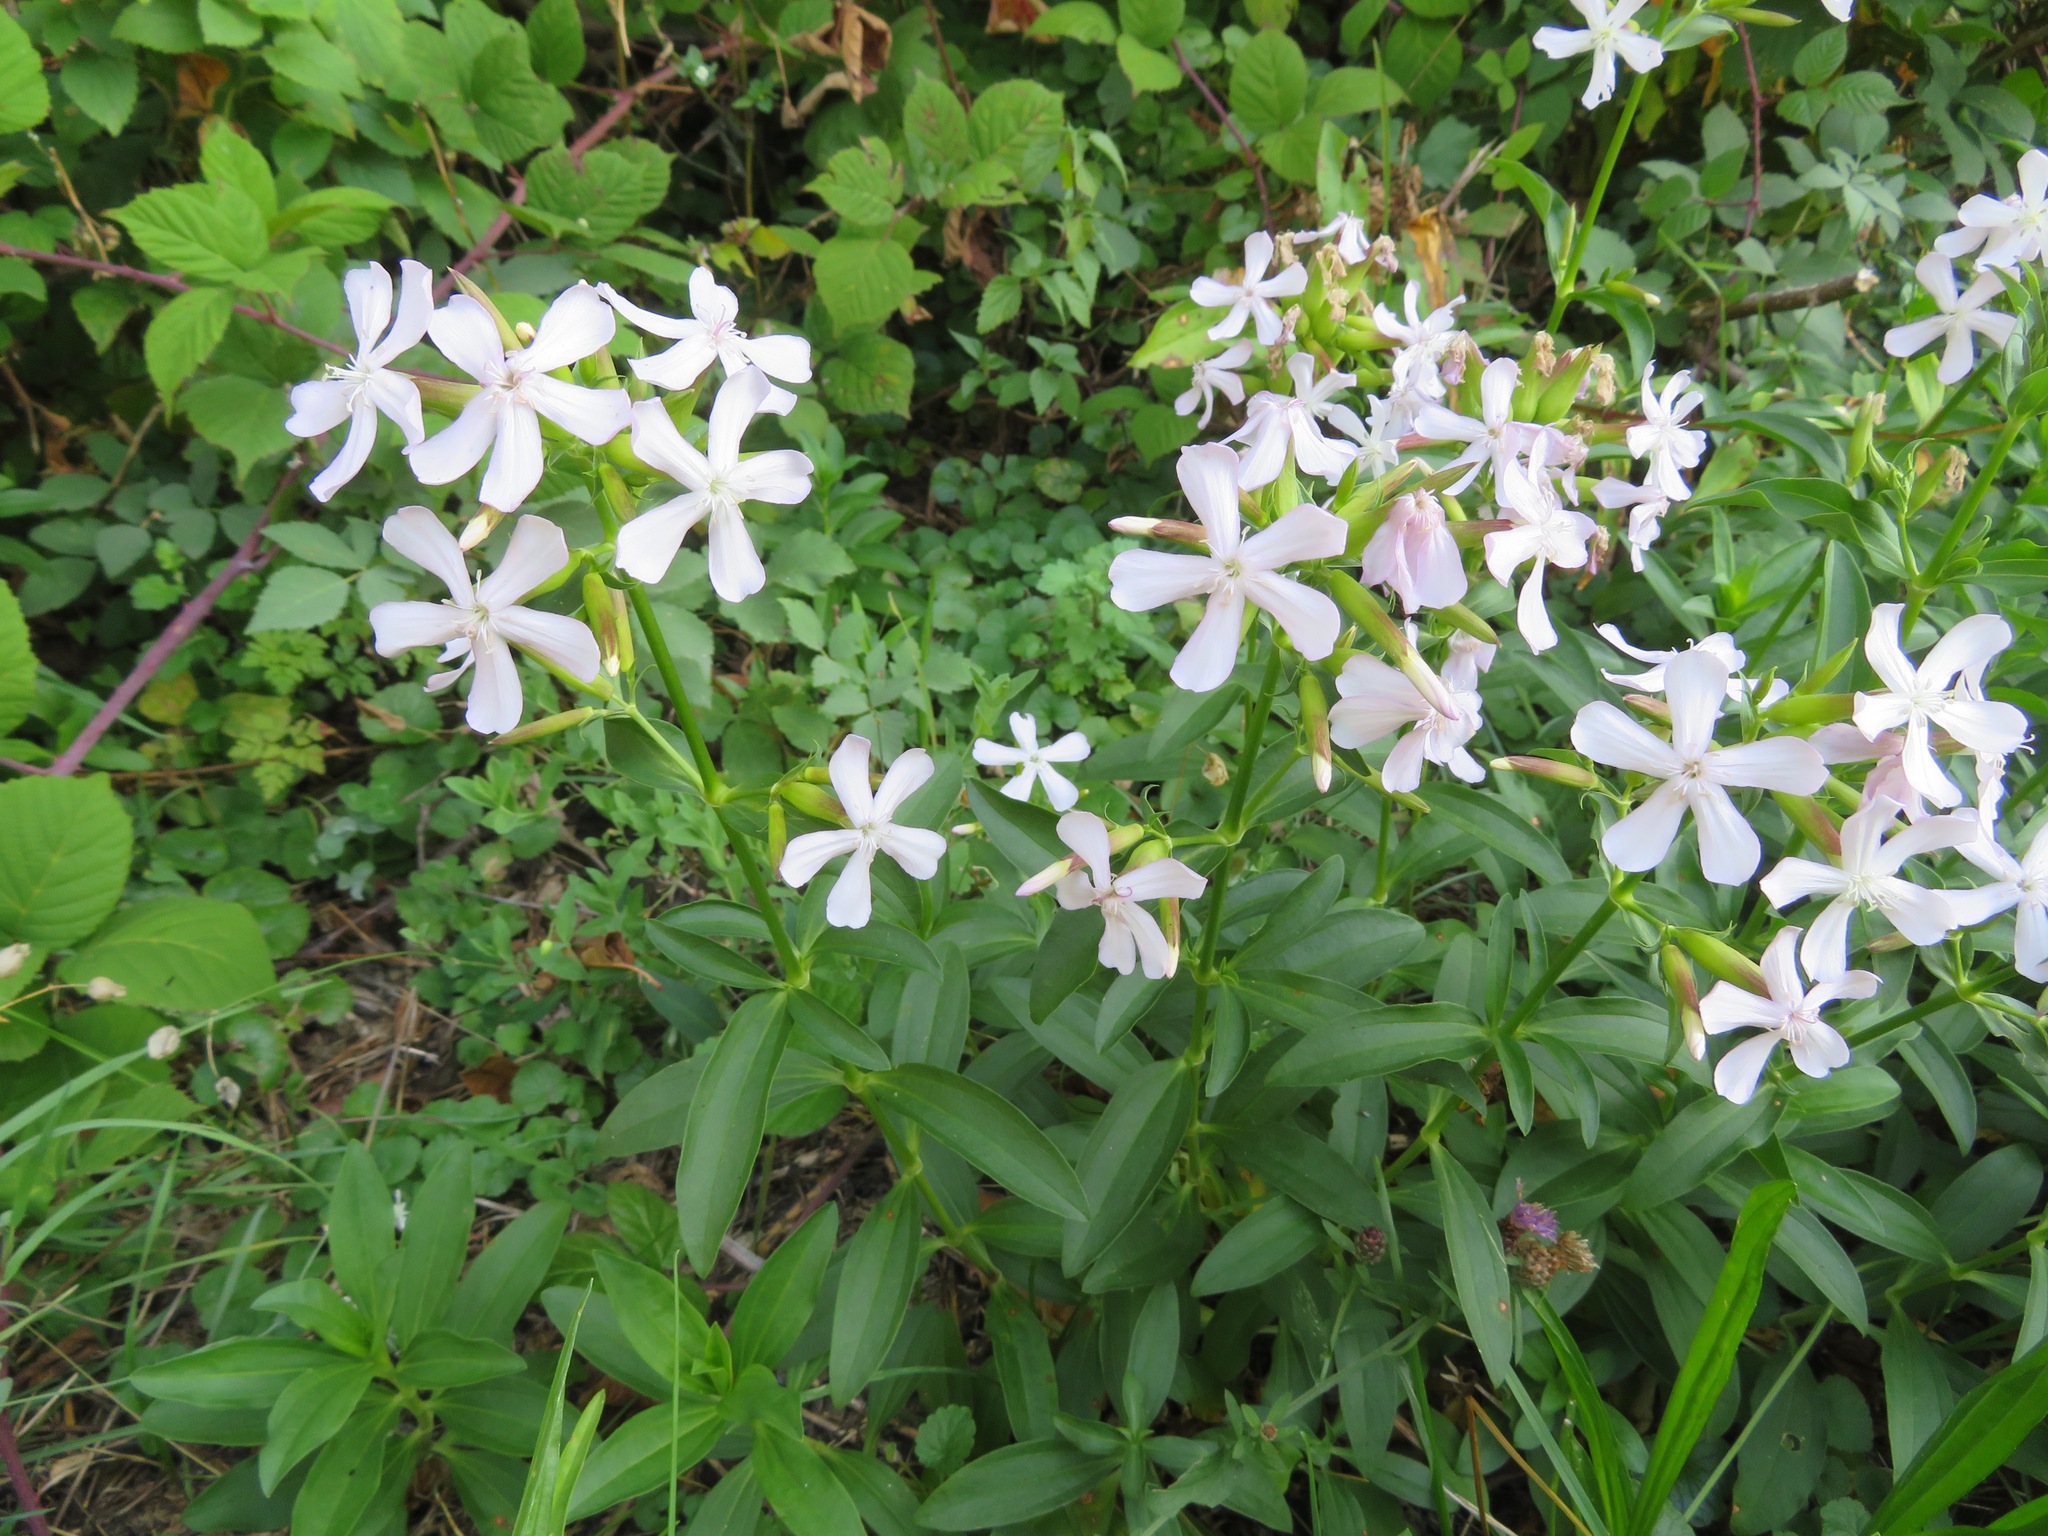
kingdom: Plantae
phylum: Tracheophyta
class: Magnoliopsida
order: Caryophyllales
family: Caryophyllaceae
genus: Saponaria
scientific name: Saponaria officinalis
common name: Soapwort
